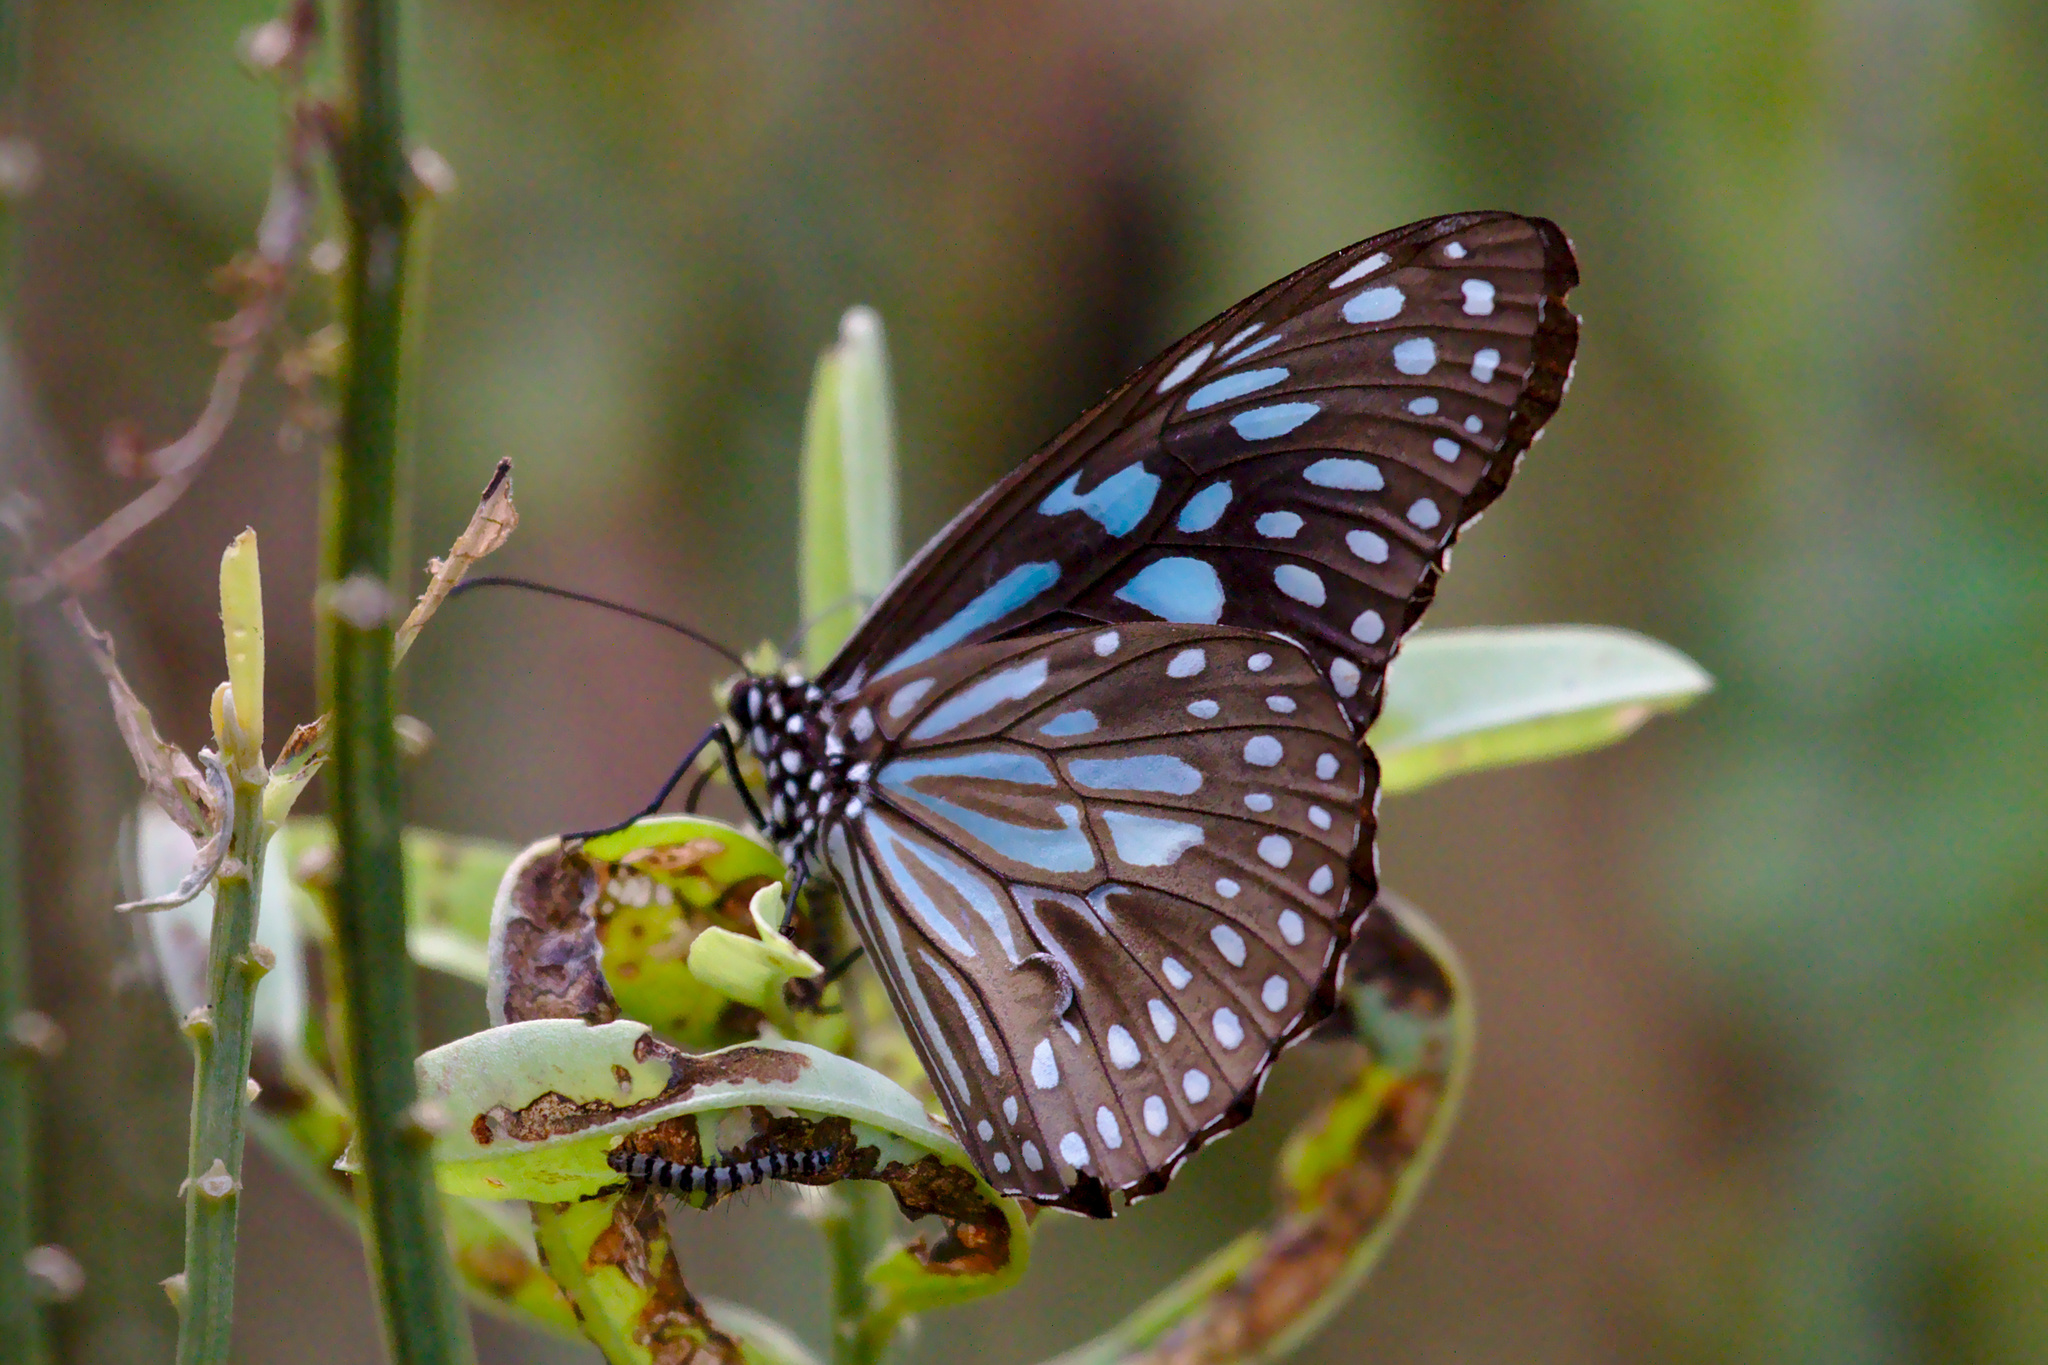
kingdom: Animalia
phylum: Arthropoda
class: Insecta
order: Lepidoptera
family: Nymphalidae
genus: Tirumala
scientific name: Tirumala septentrionis
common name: Dark blue tiger butterfly
